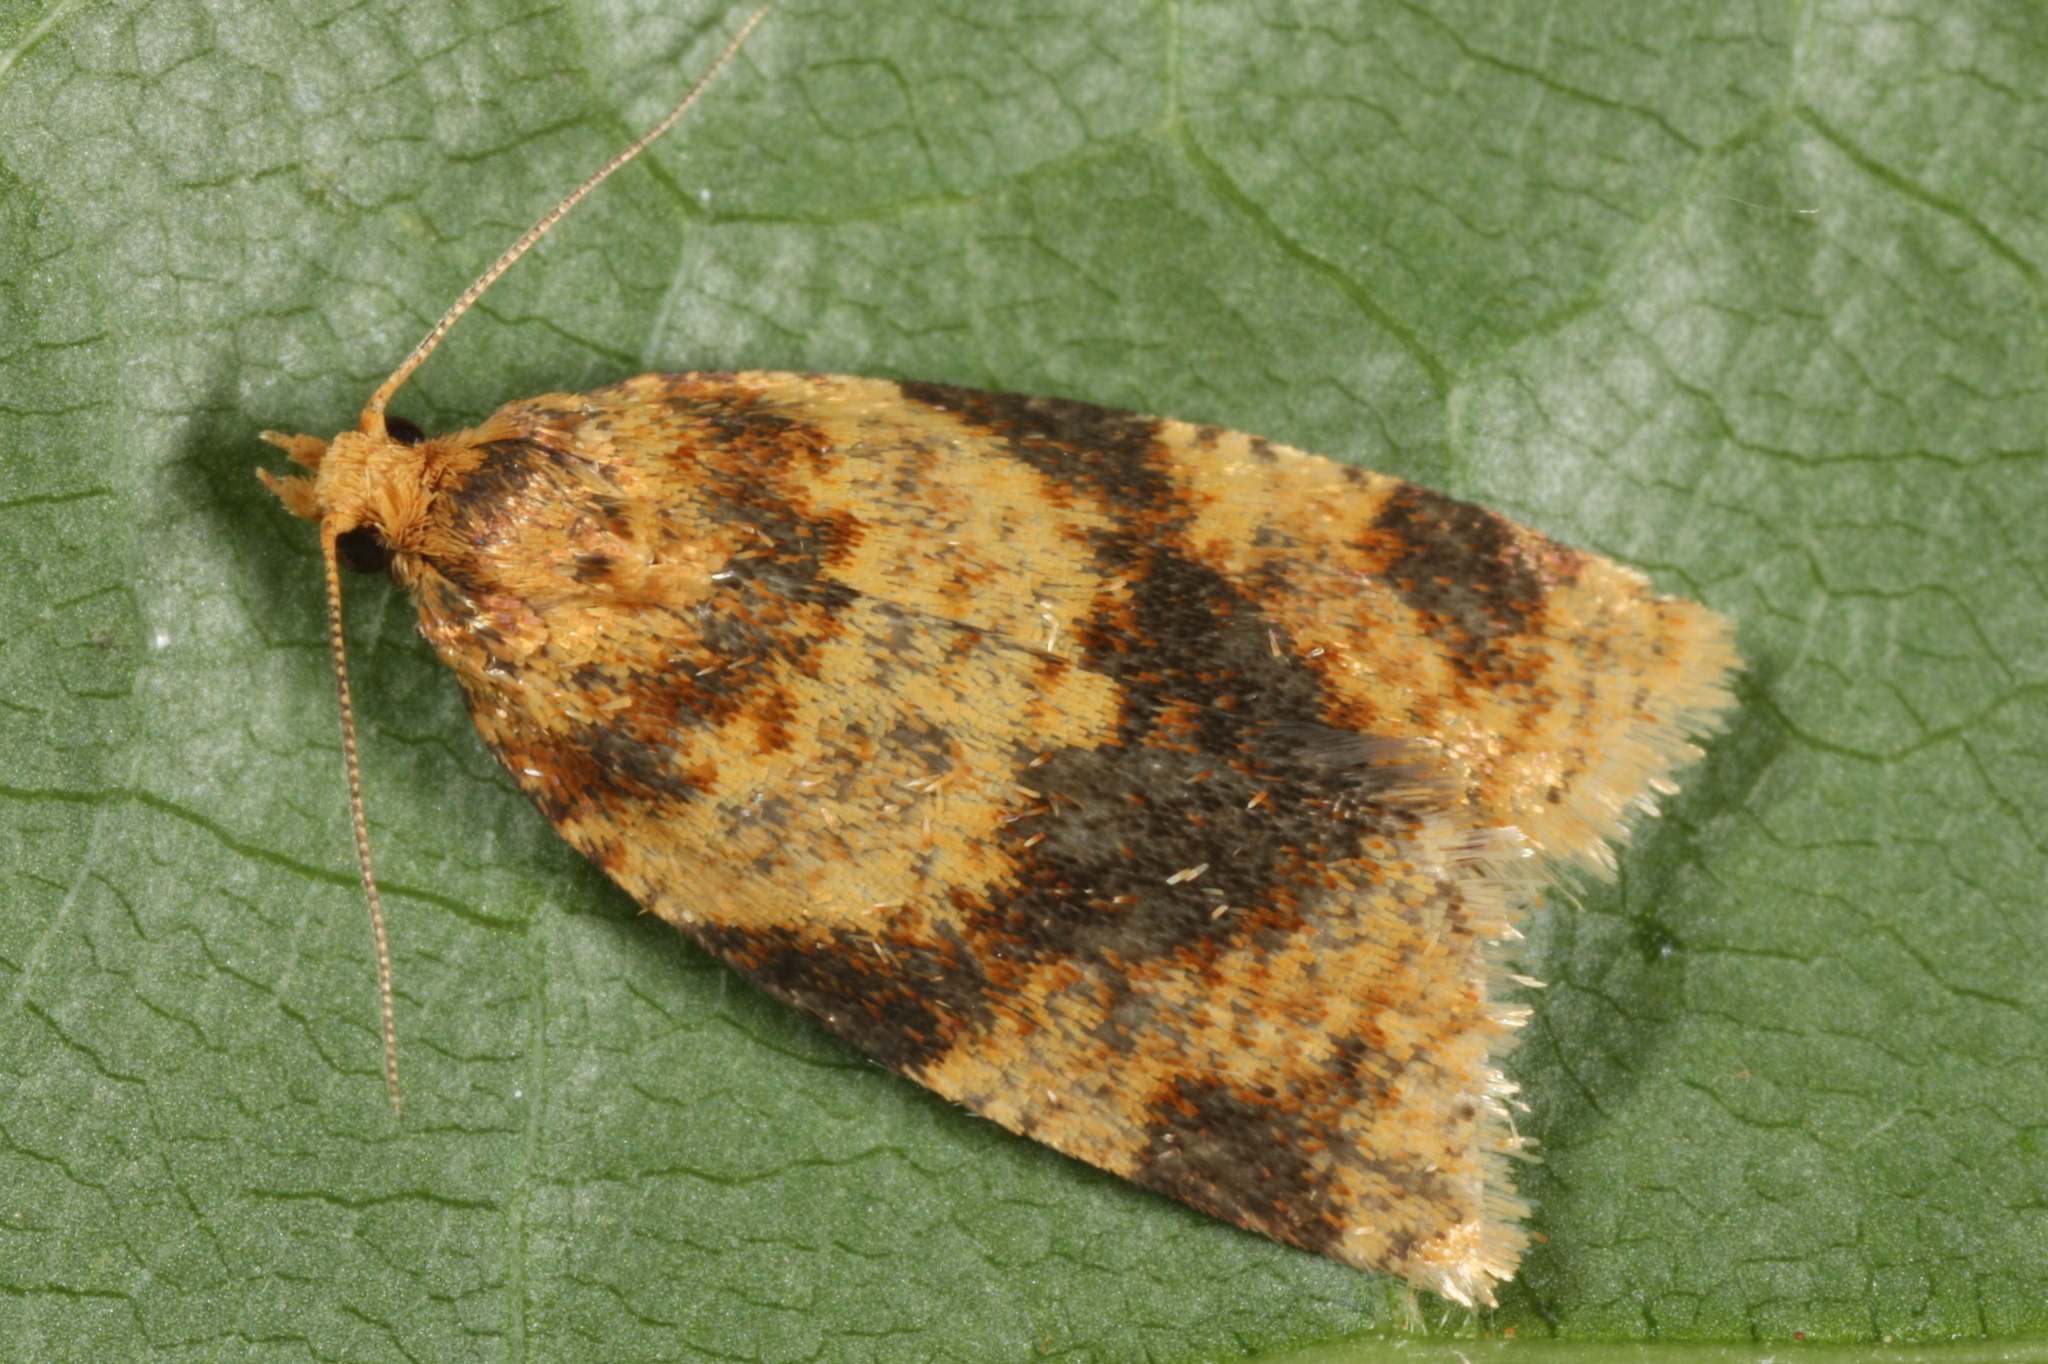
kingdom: Animalia
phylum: Arthropoda
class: Insecta
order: Lepidoptera
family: Tortricidae
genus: Epagoge
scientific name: Epagoge grotiana
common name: Brown-barred twist
